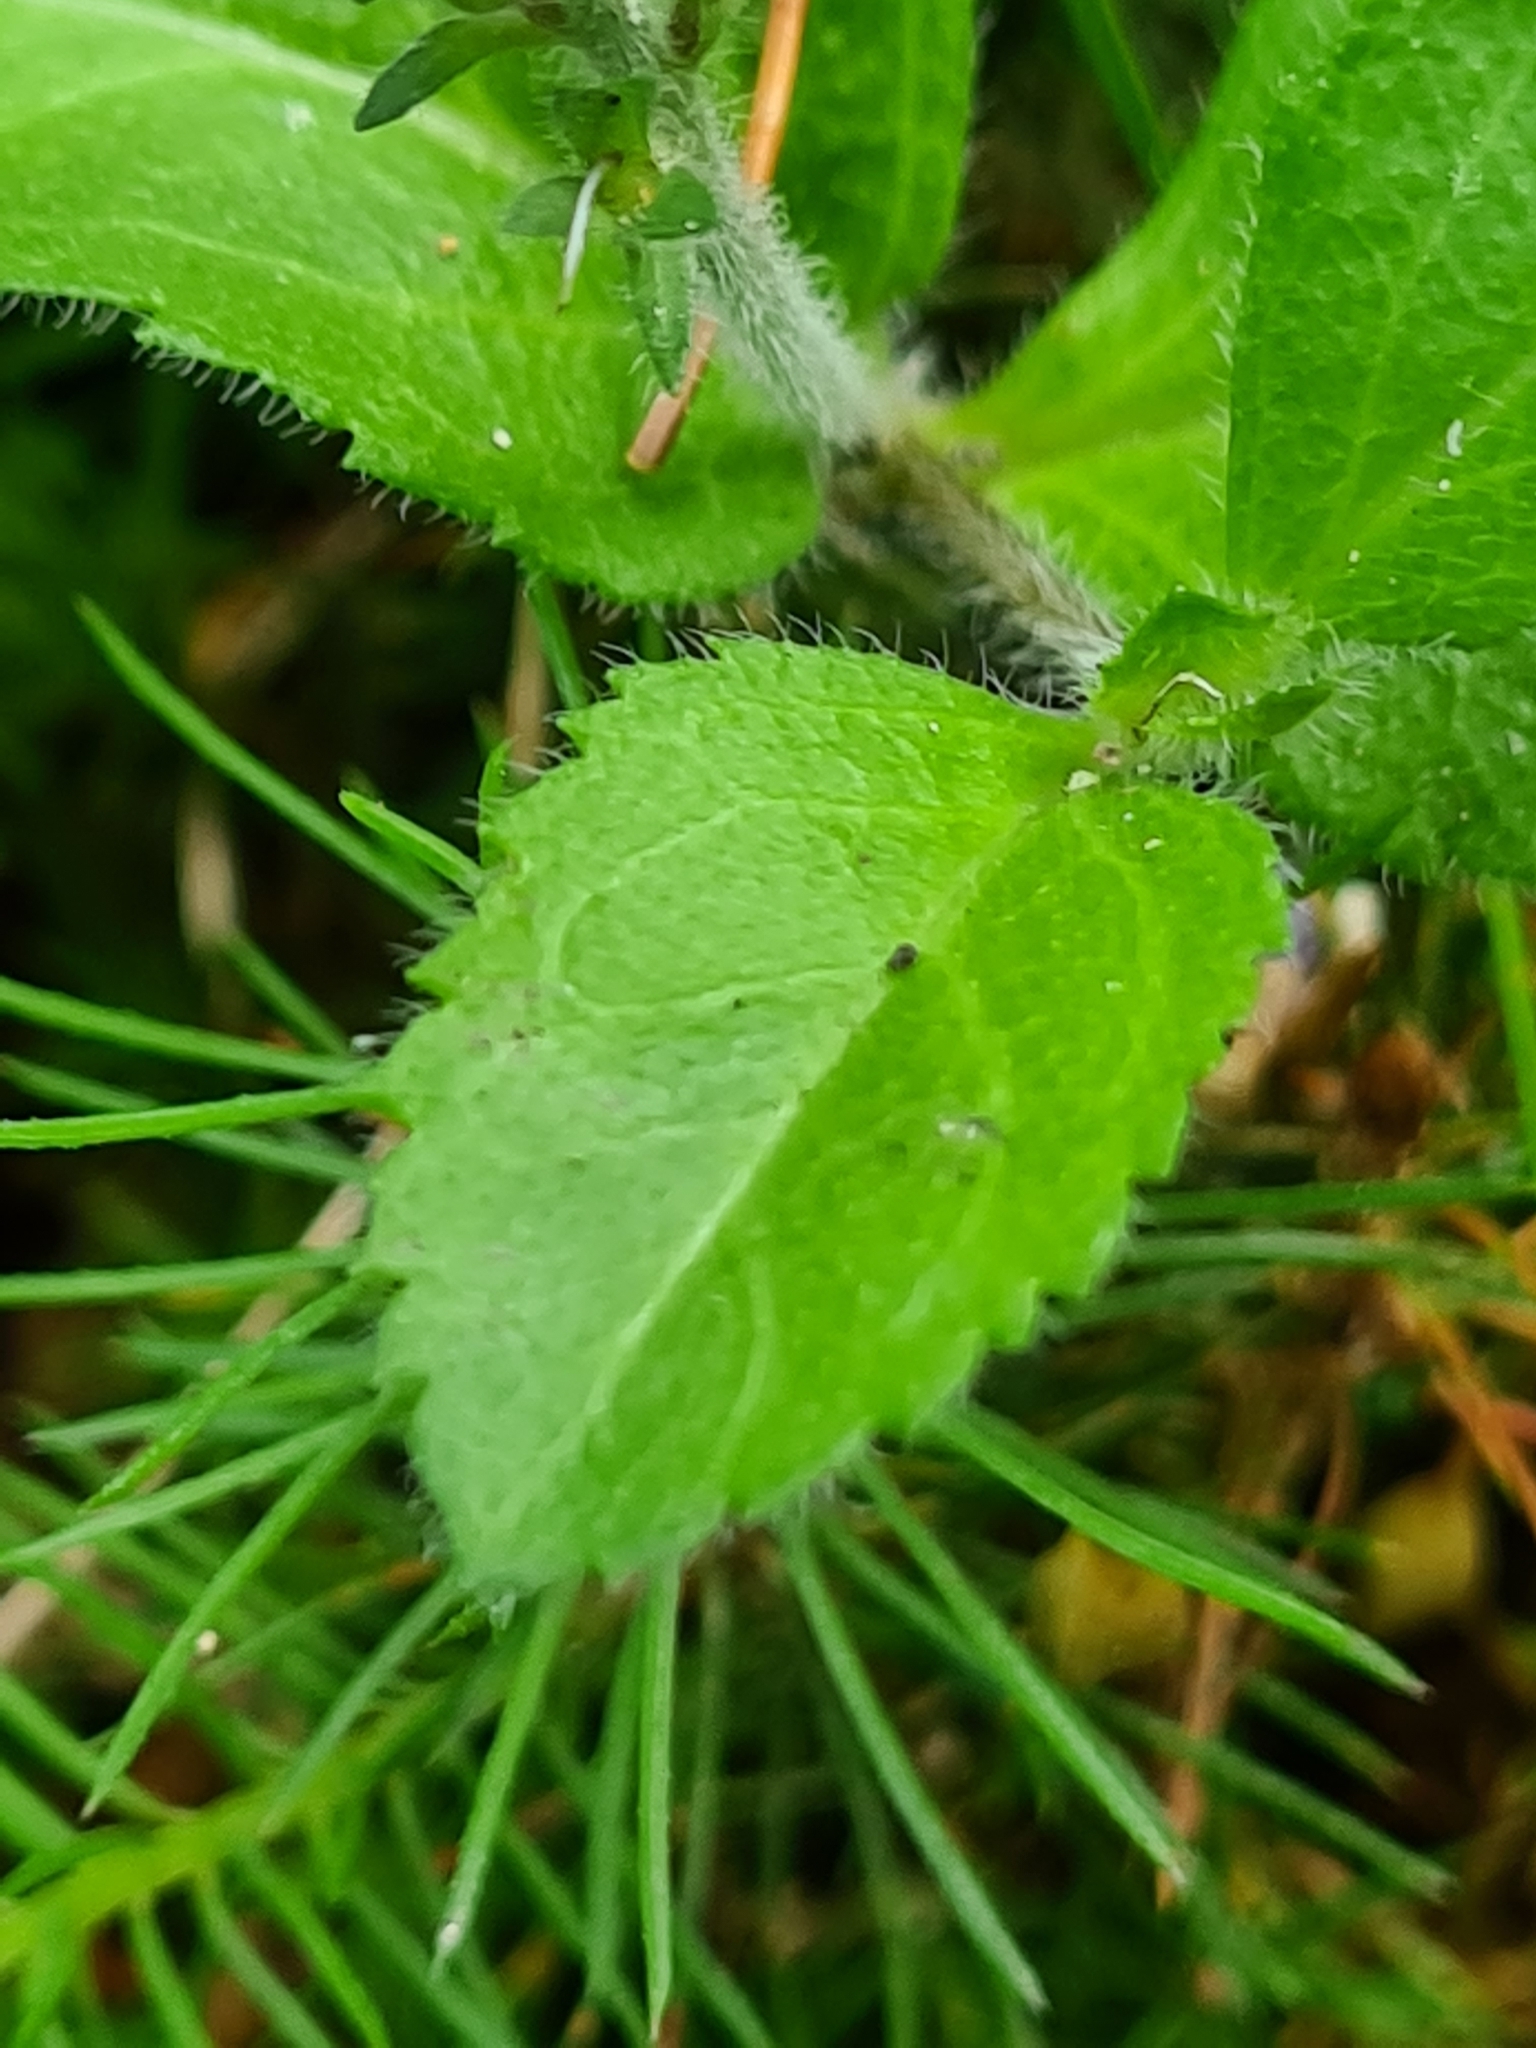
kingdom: Plantae
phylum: Tracheophyta
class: Magnoliopsida
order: Lamiales
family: Plantaginaceae
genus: Veronica
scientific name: Veronica officinalis
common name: Common speedwell
